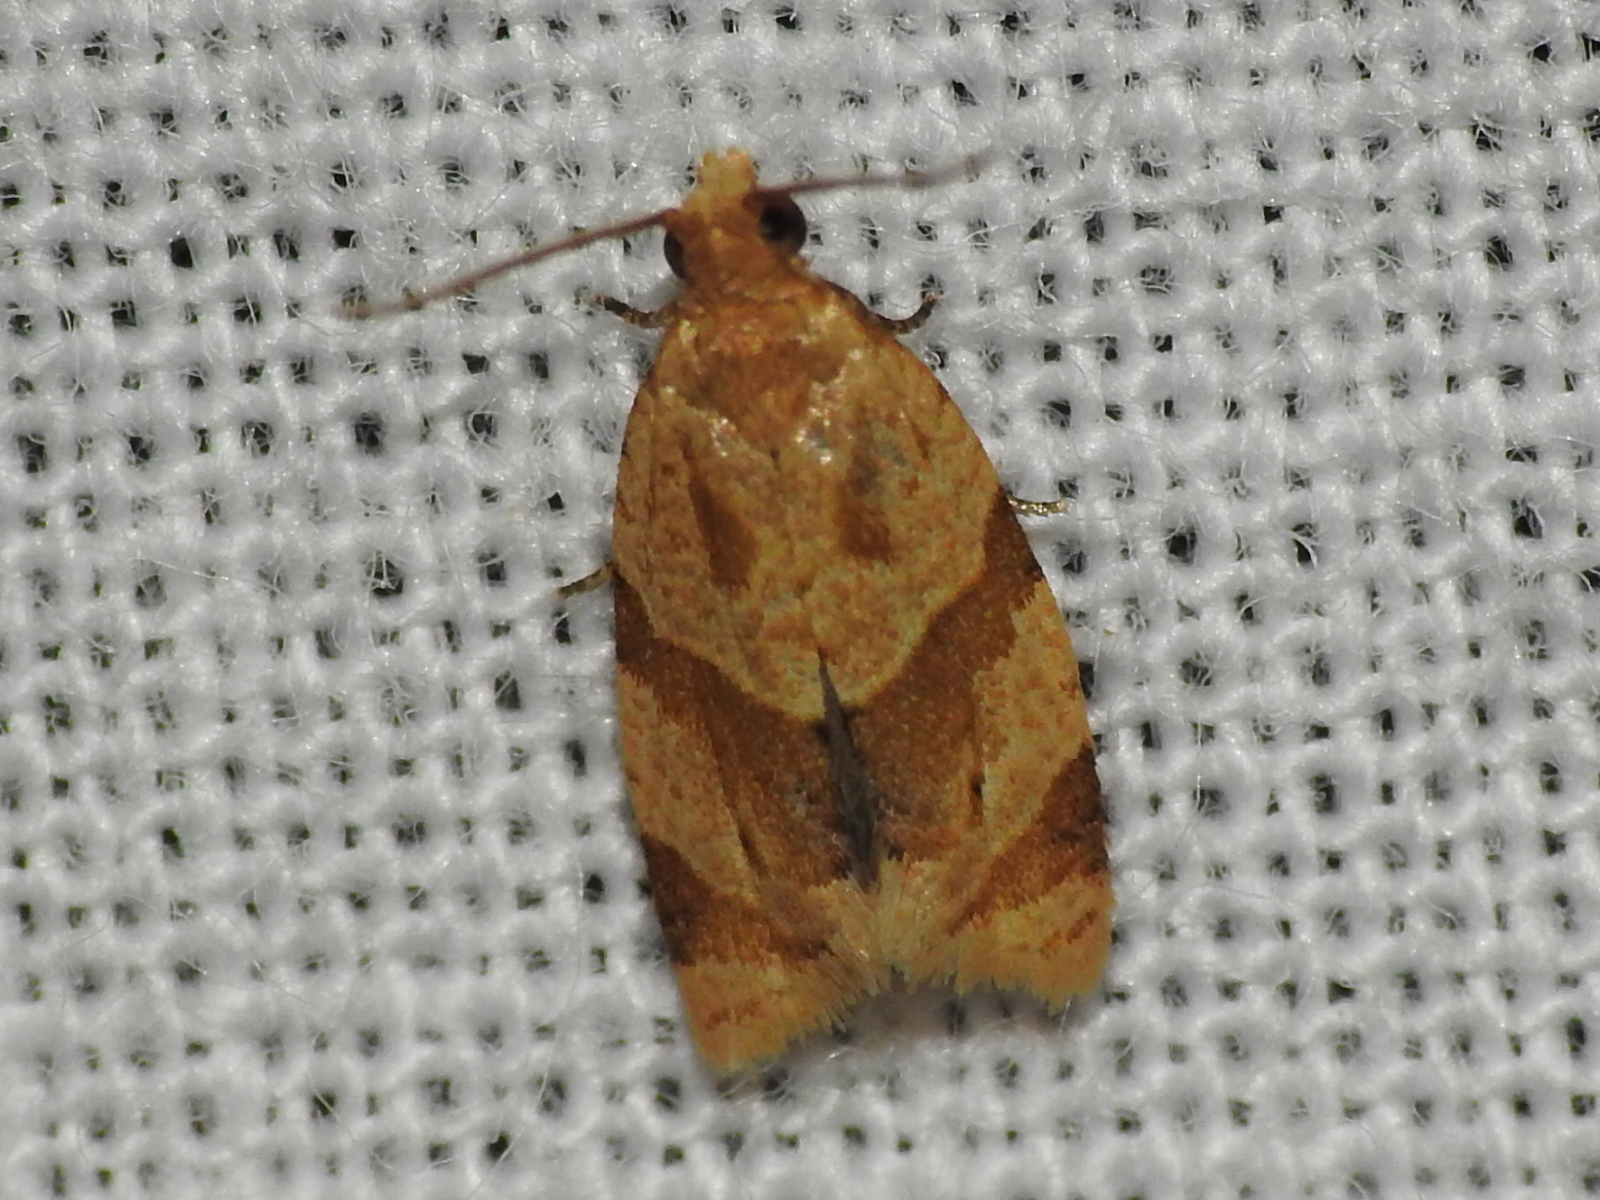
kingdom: Animalia
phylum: Arthropoda
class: Insecta
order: Lepidoptera
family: Tortricidae
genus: Clepsis
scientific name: Clepsis peritana
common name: Garden tortrix
